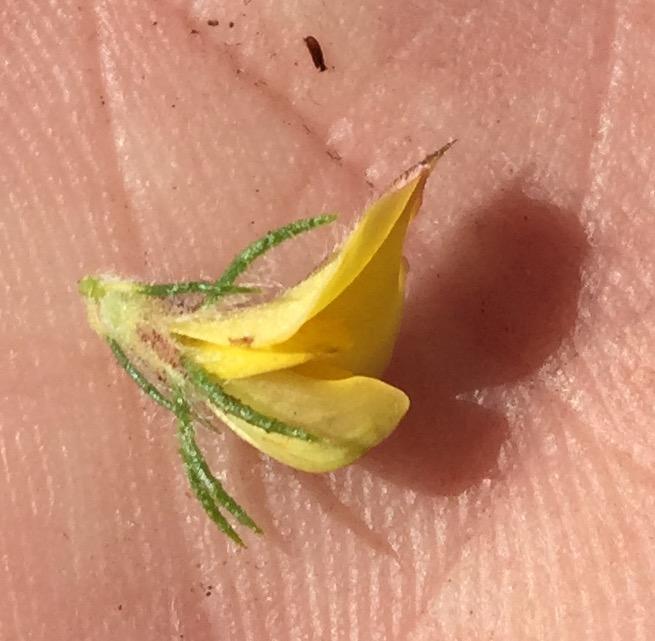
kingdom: Plantae
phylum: Tracheophyta
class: Magnoliopsida
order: Fabales
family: Fabaceae
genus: Aspalathus
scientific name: Aspalathus asparagoides
